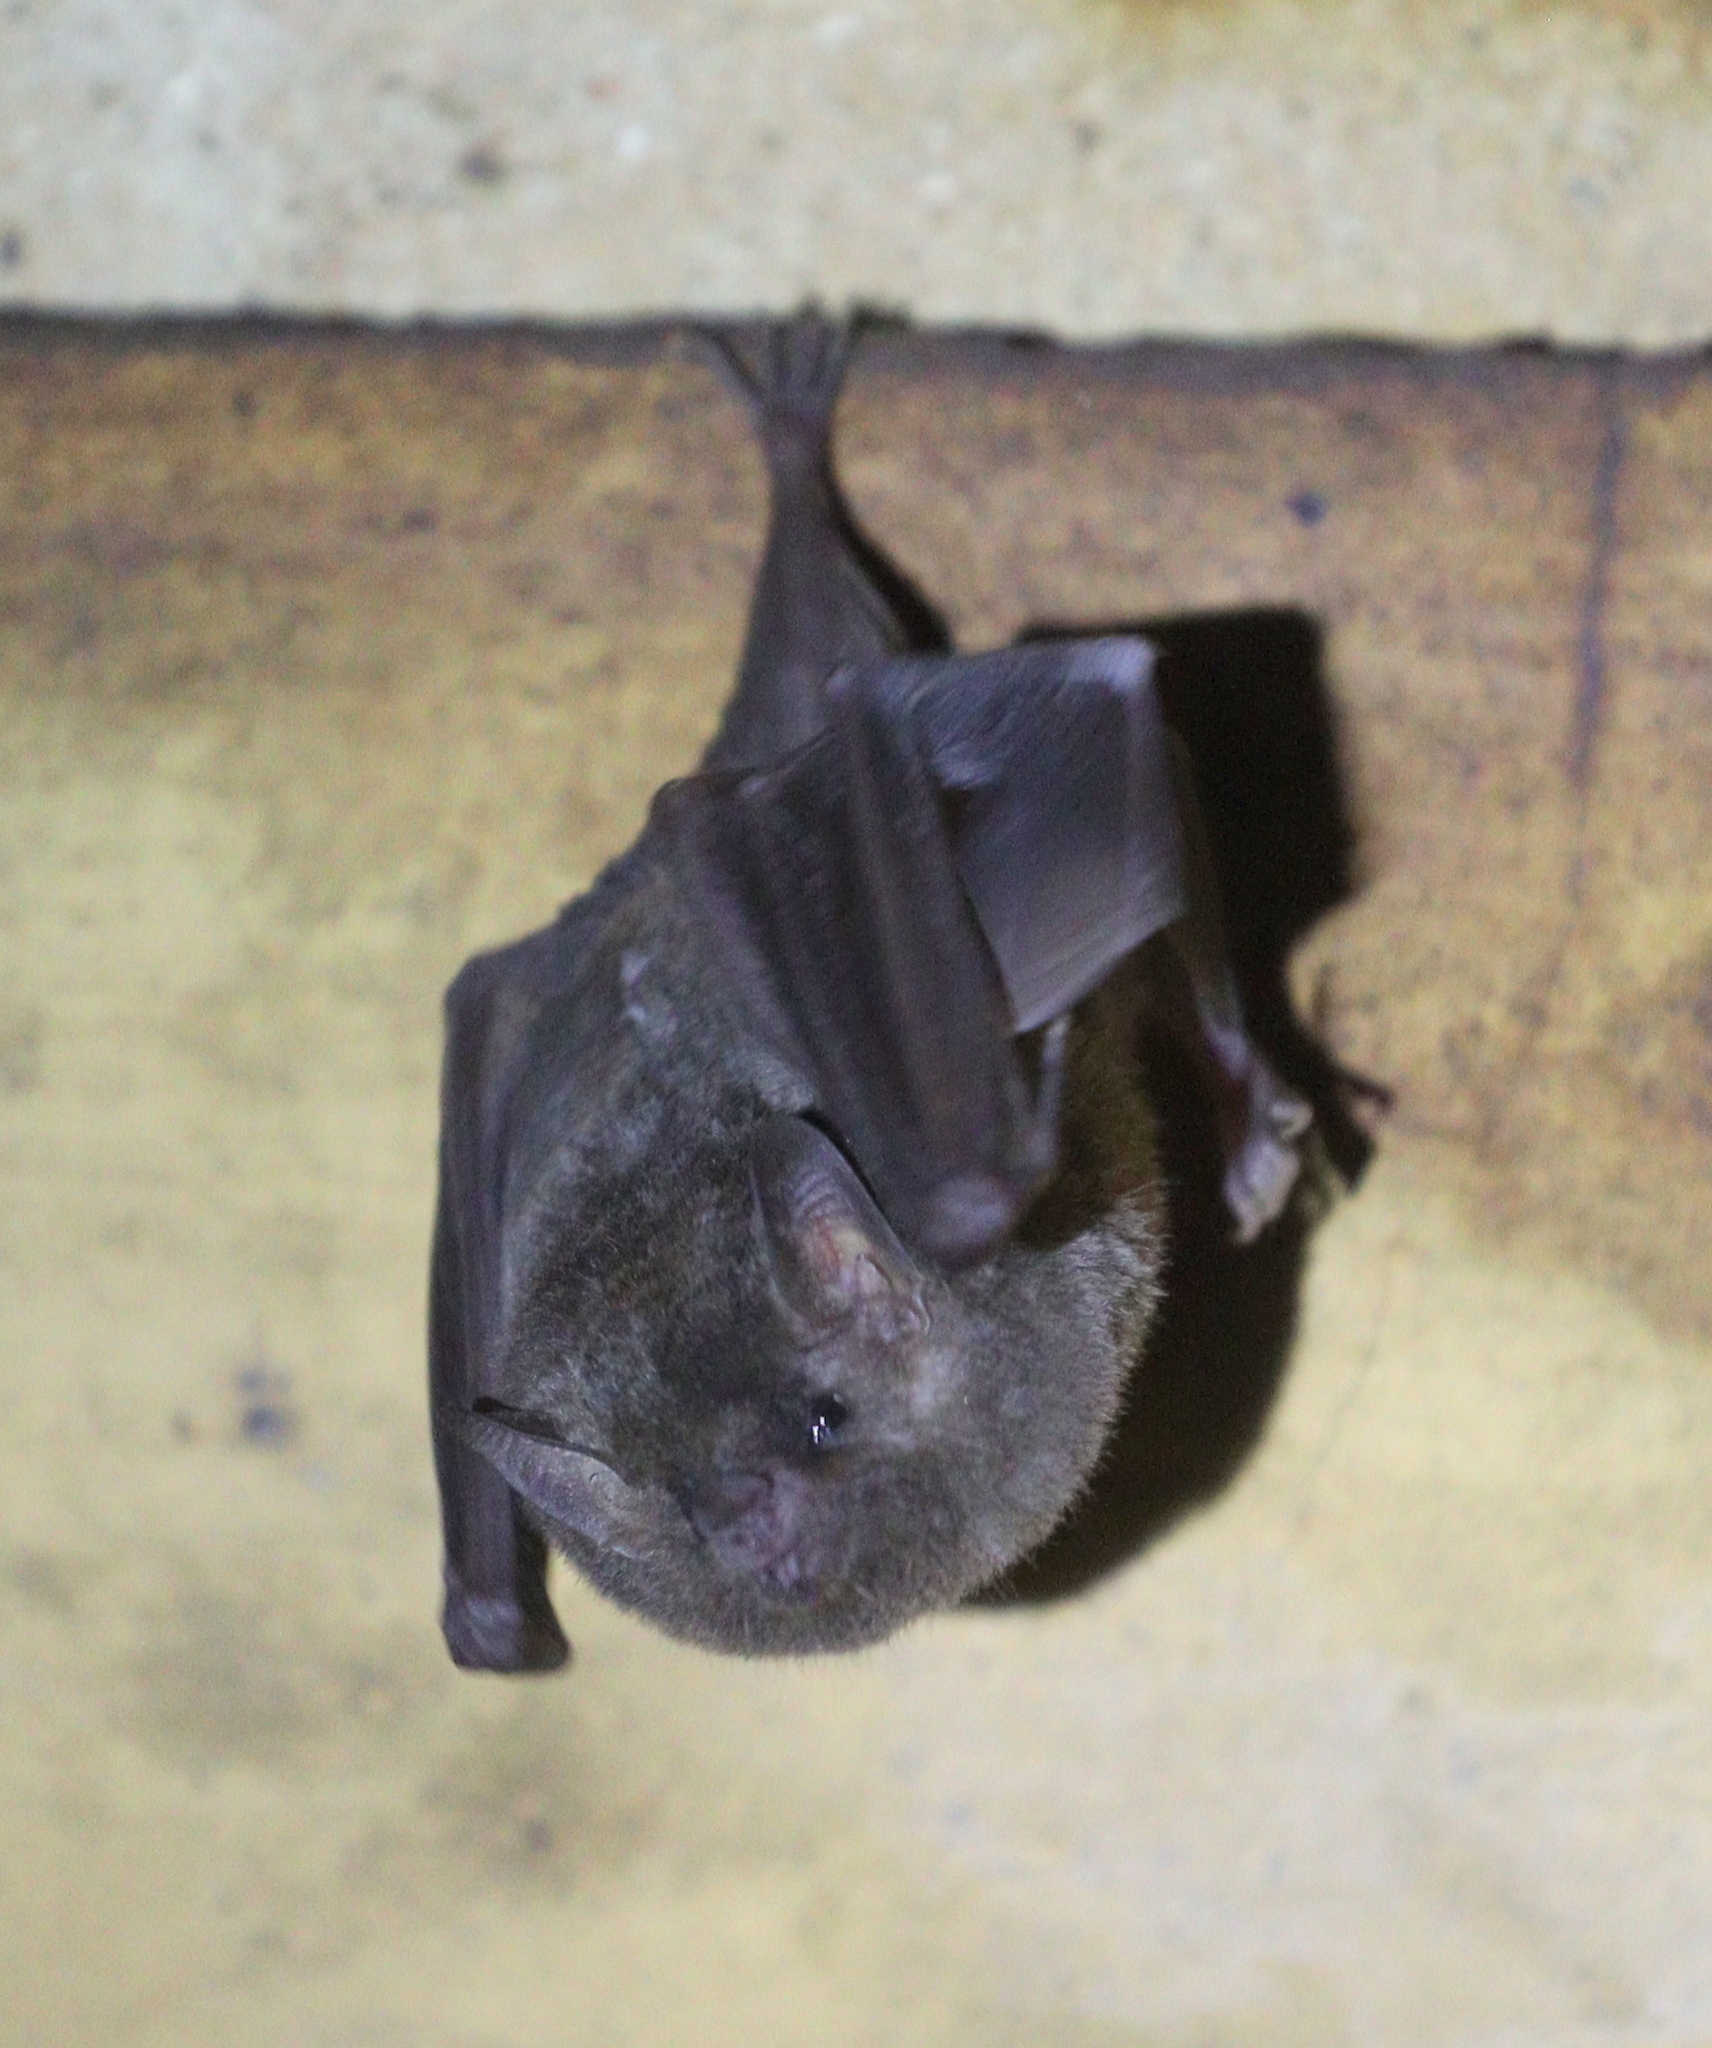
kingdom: Animalia
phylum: Chordata
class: Mammalia
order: Chiroptera
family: Phyllostomidae
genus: Glossophaga
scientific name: Glossophaga soricina
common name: Pallas's long-tongued bat
